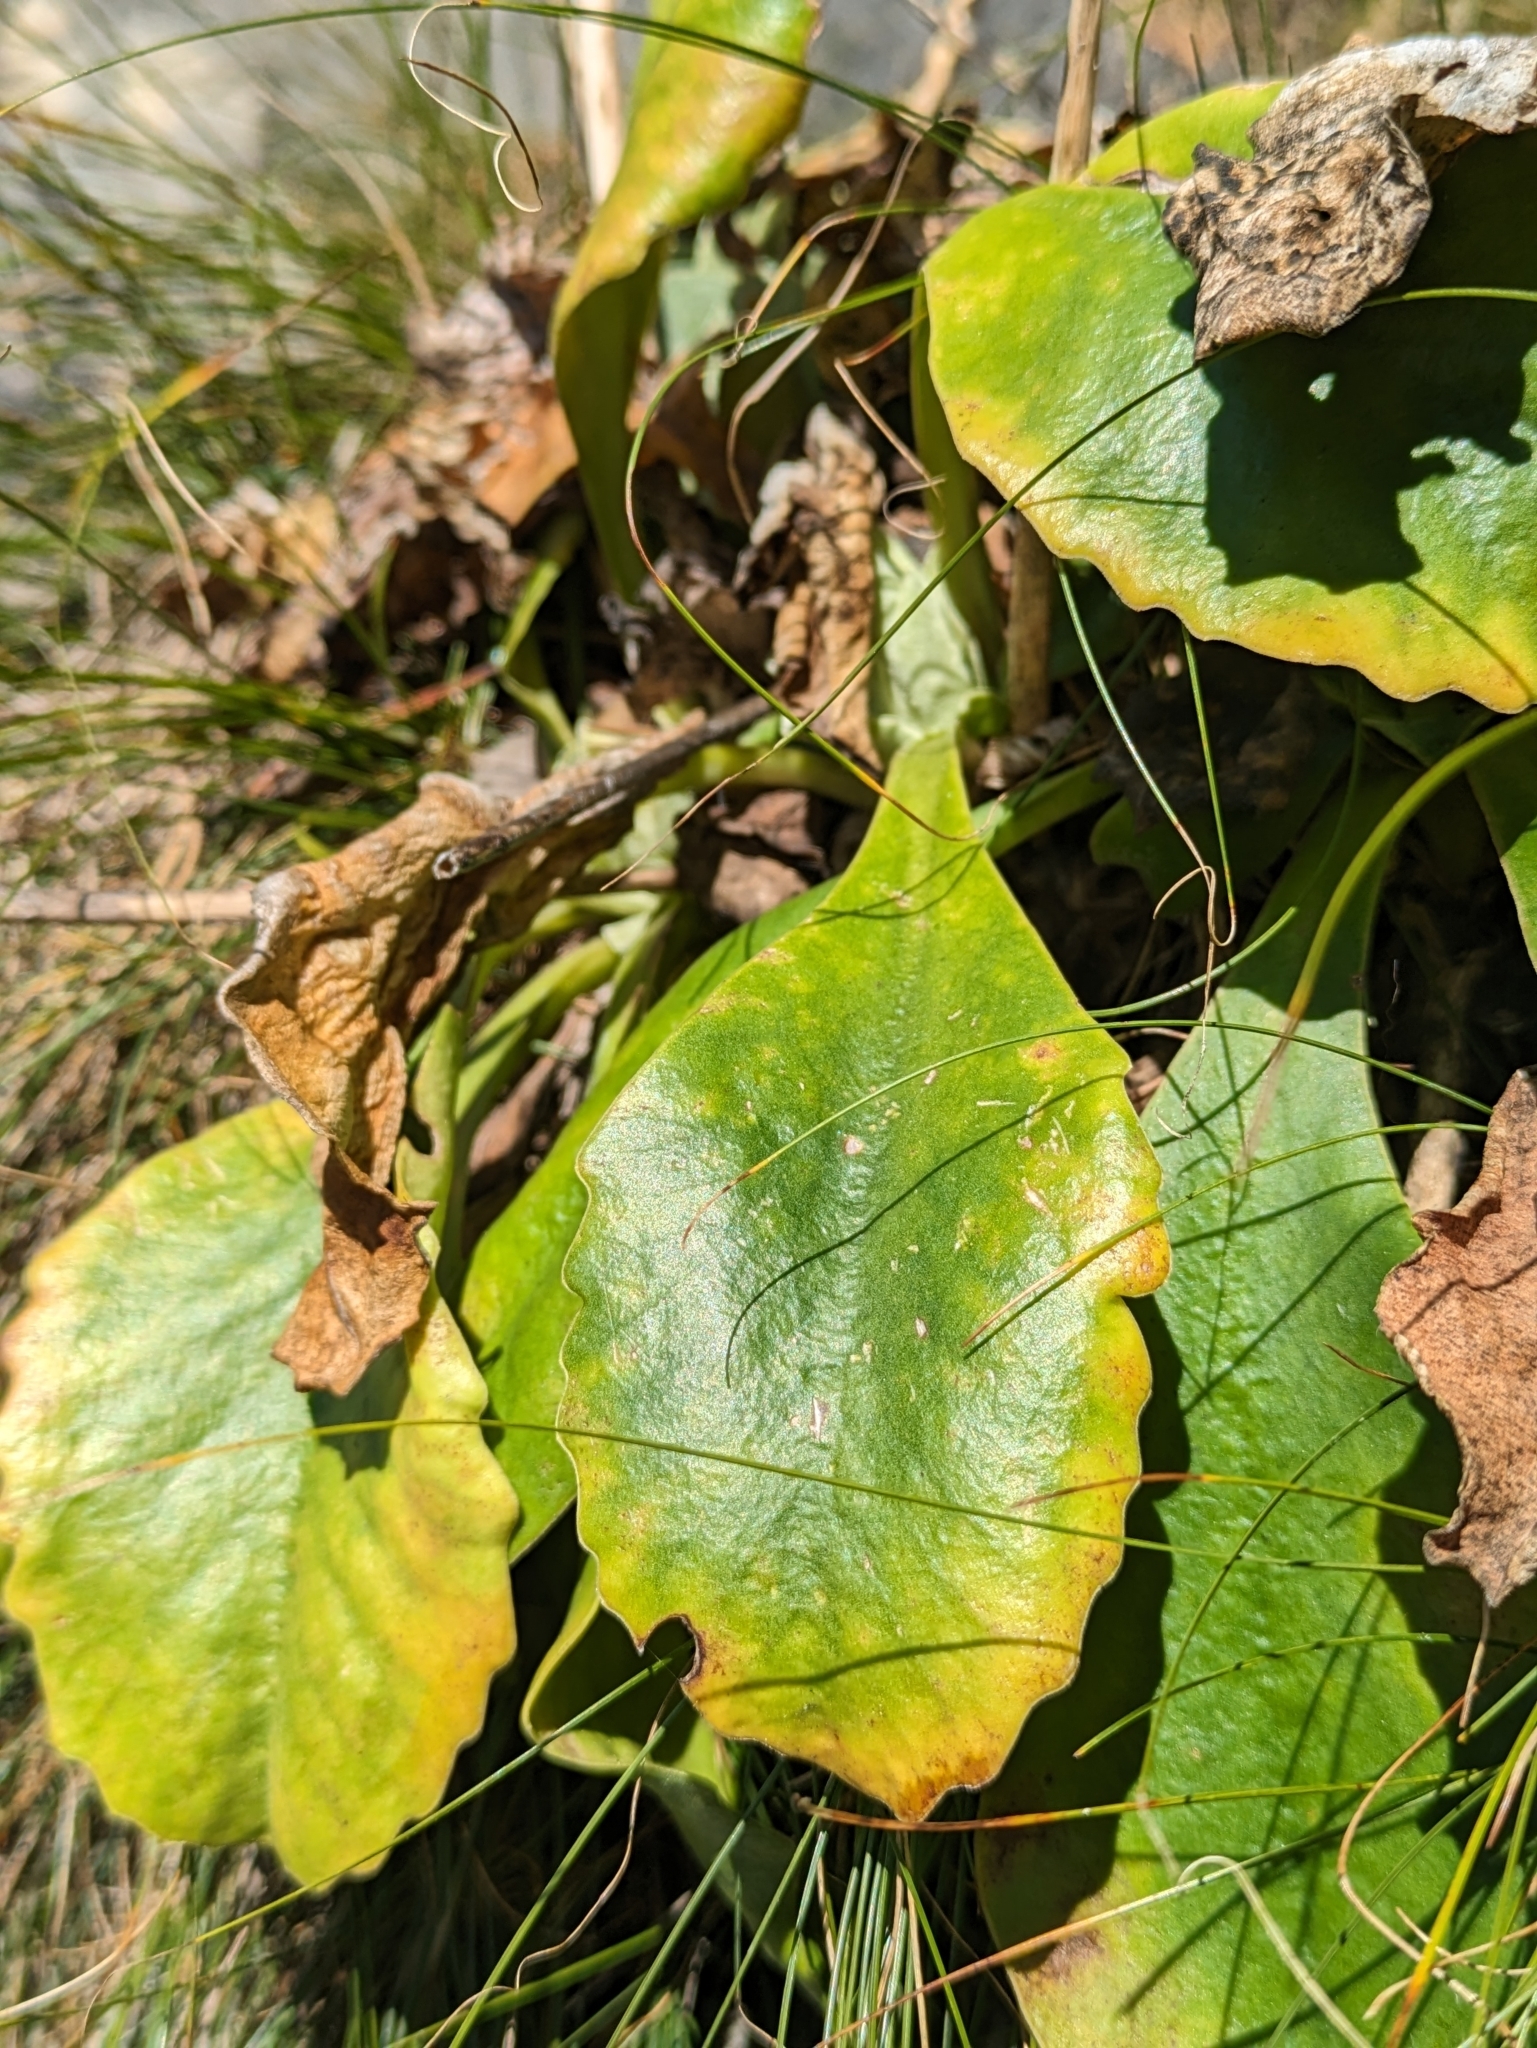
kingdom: Plantae
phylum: Tracheophyta
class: Magnoliopsida
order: Ericales
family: Primulaceae
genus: Primula
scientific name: Primula auricula
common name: Auricula
